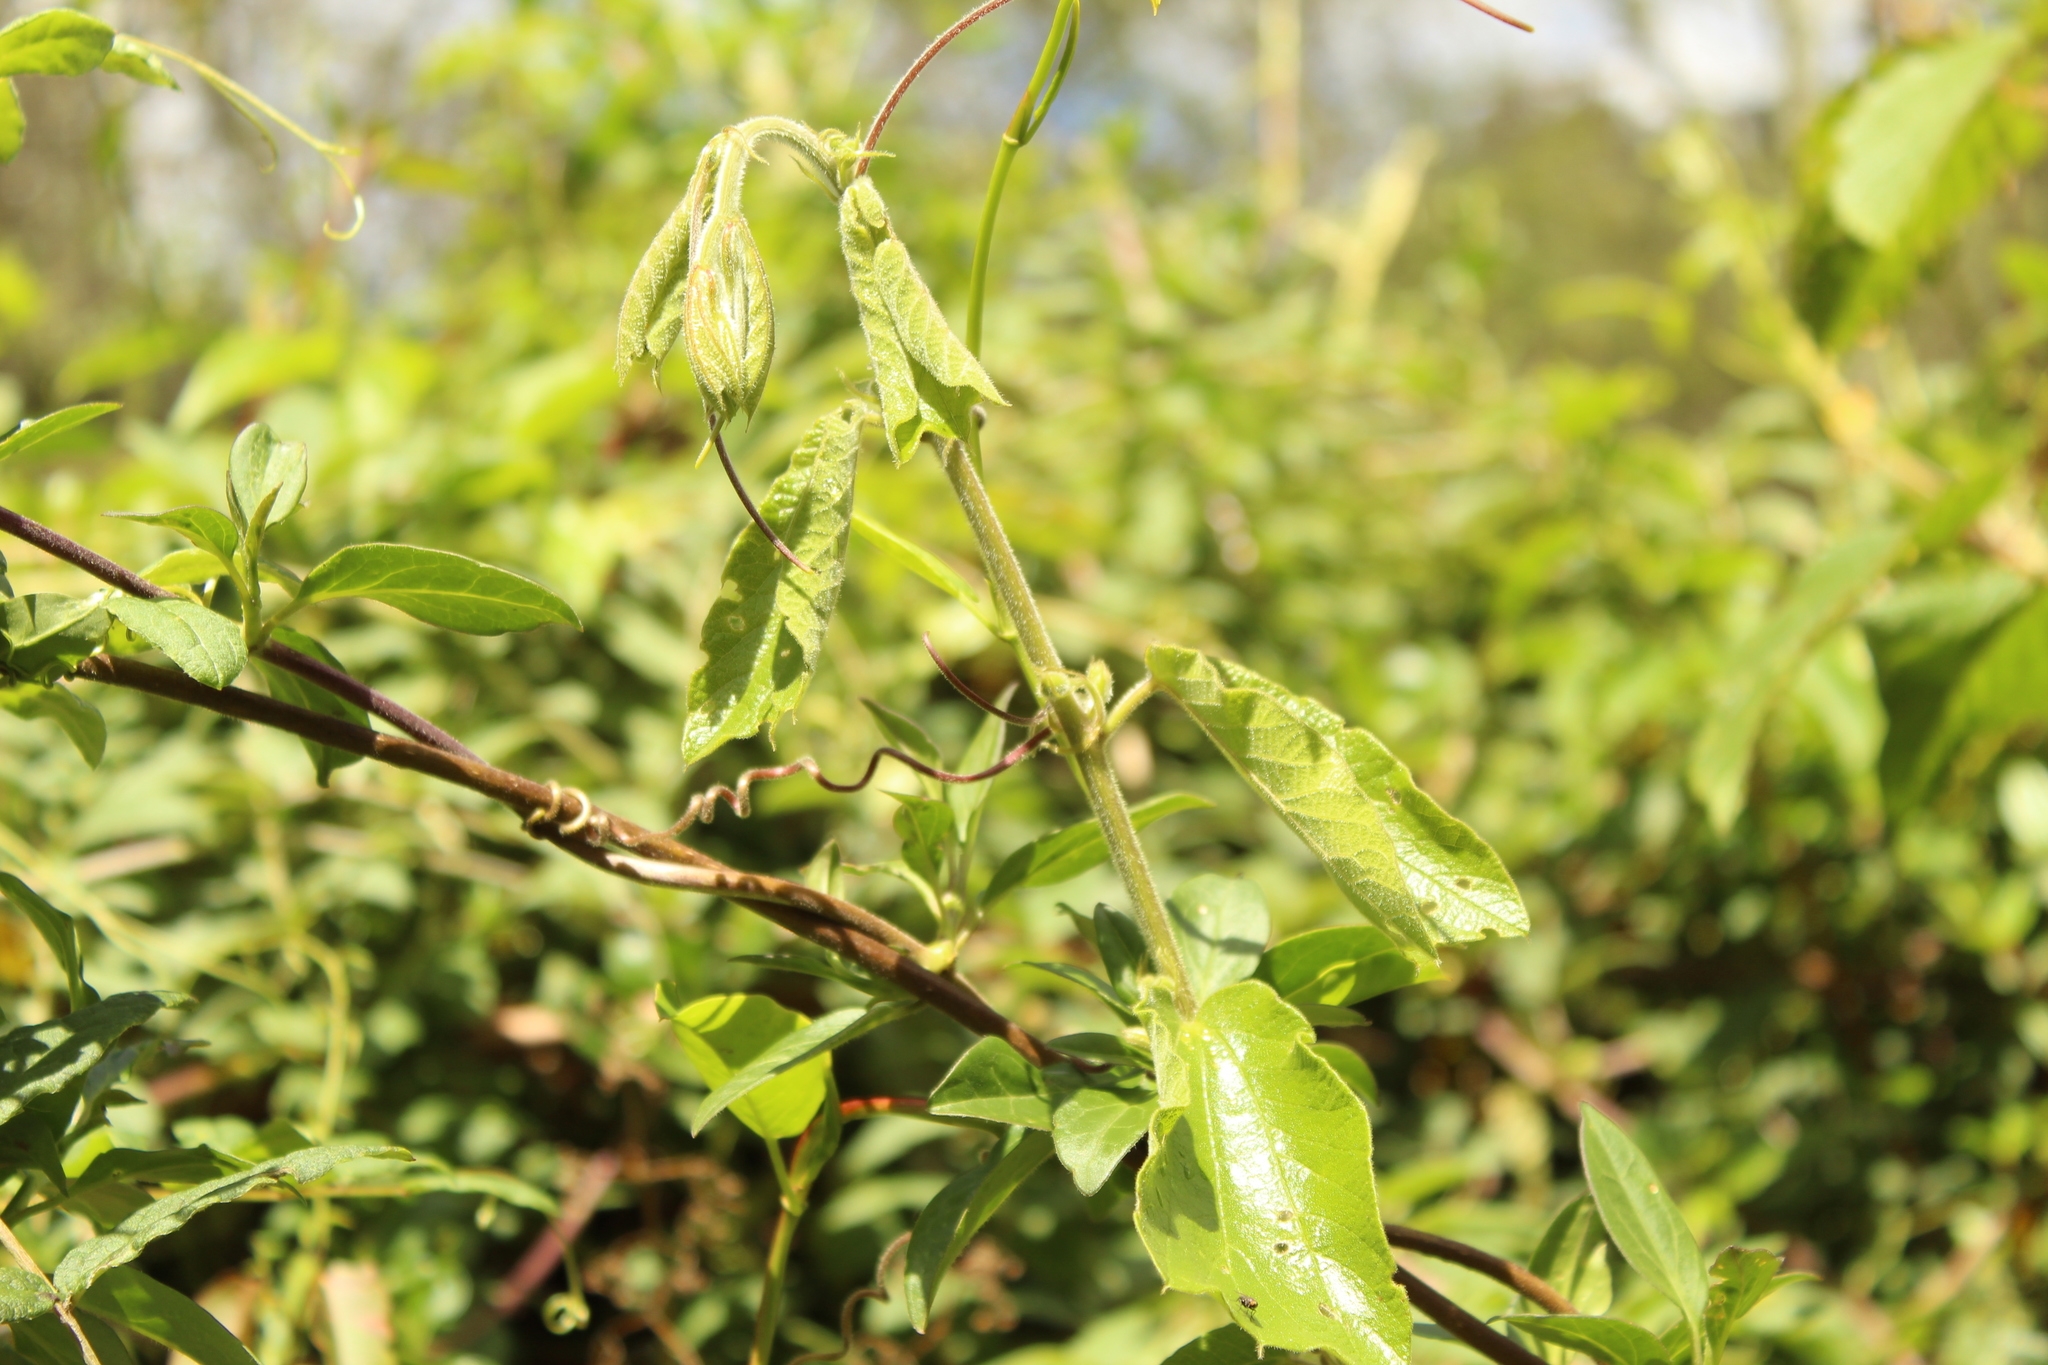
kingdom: Plantae
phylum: Tracheophyta
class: Magnoliopsida
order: Malpighiales
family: Passifloraceae
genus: Passiflora
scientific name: Passiflora bogotensis
